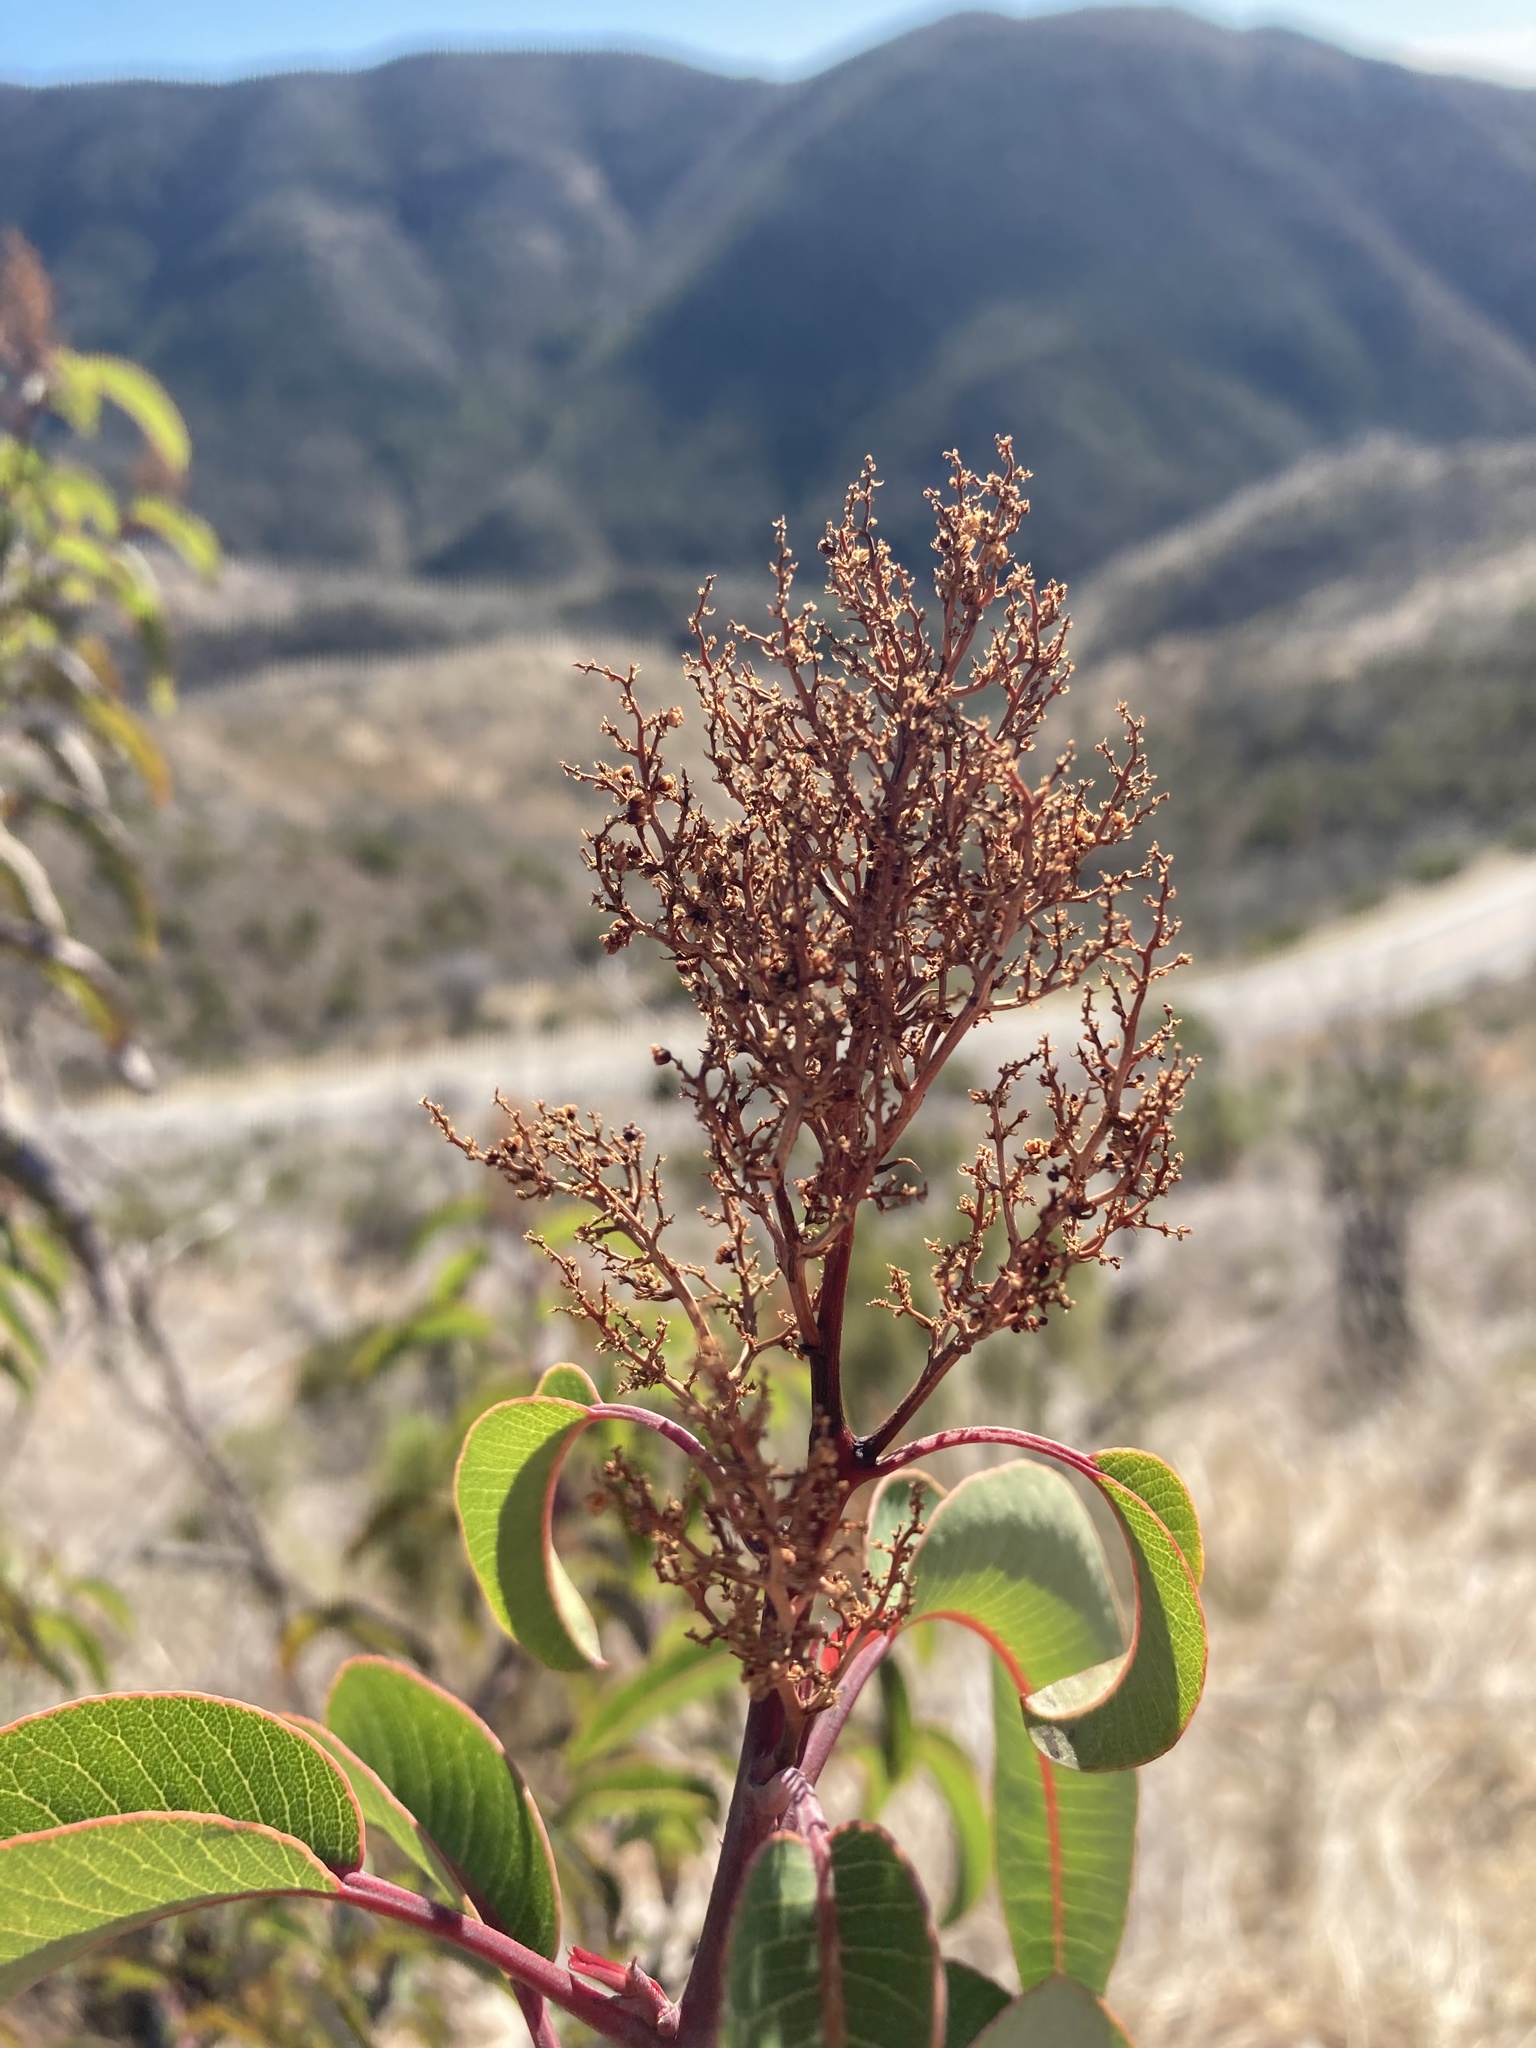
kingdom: Plantae
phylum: Tracheophyta
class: Magnoliopsida
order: Sapindales
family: Anacardiaceae
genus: Malosma
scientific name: Malosma laurina
